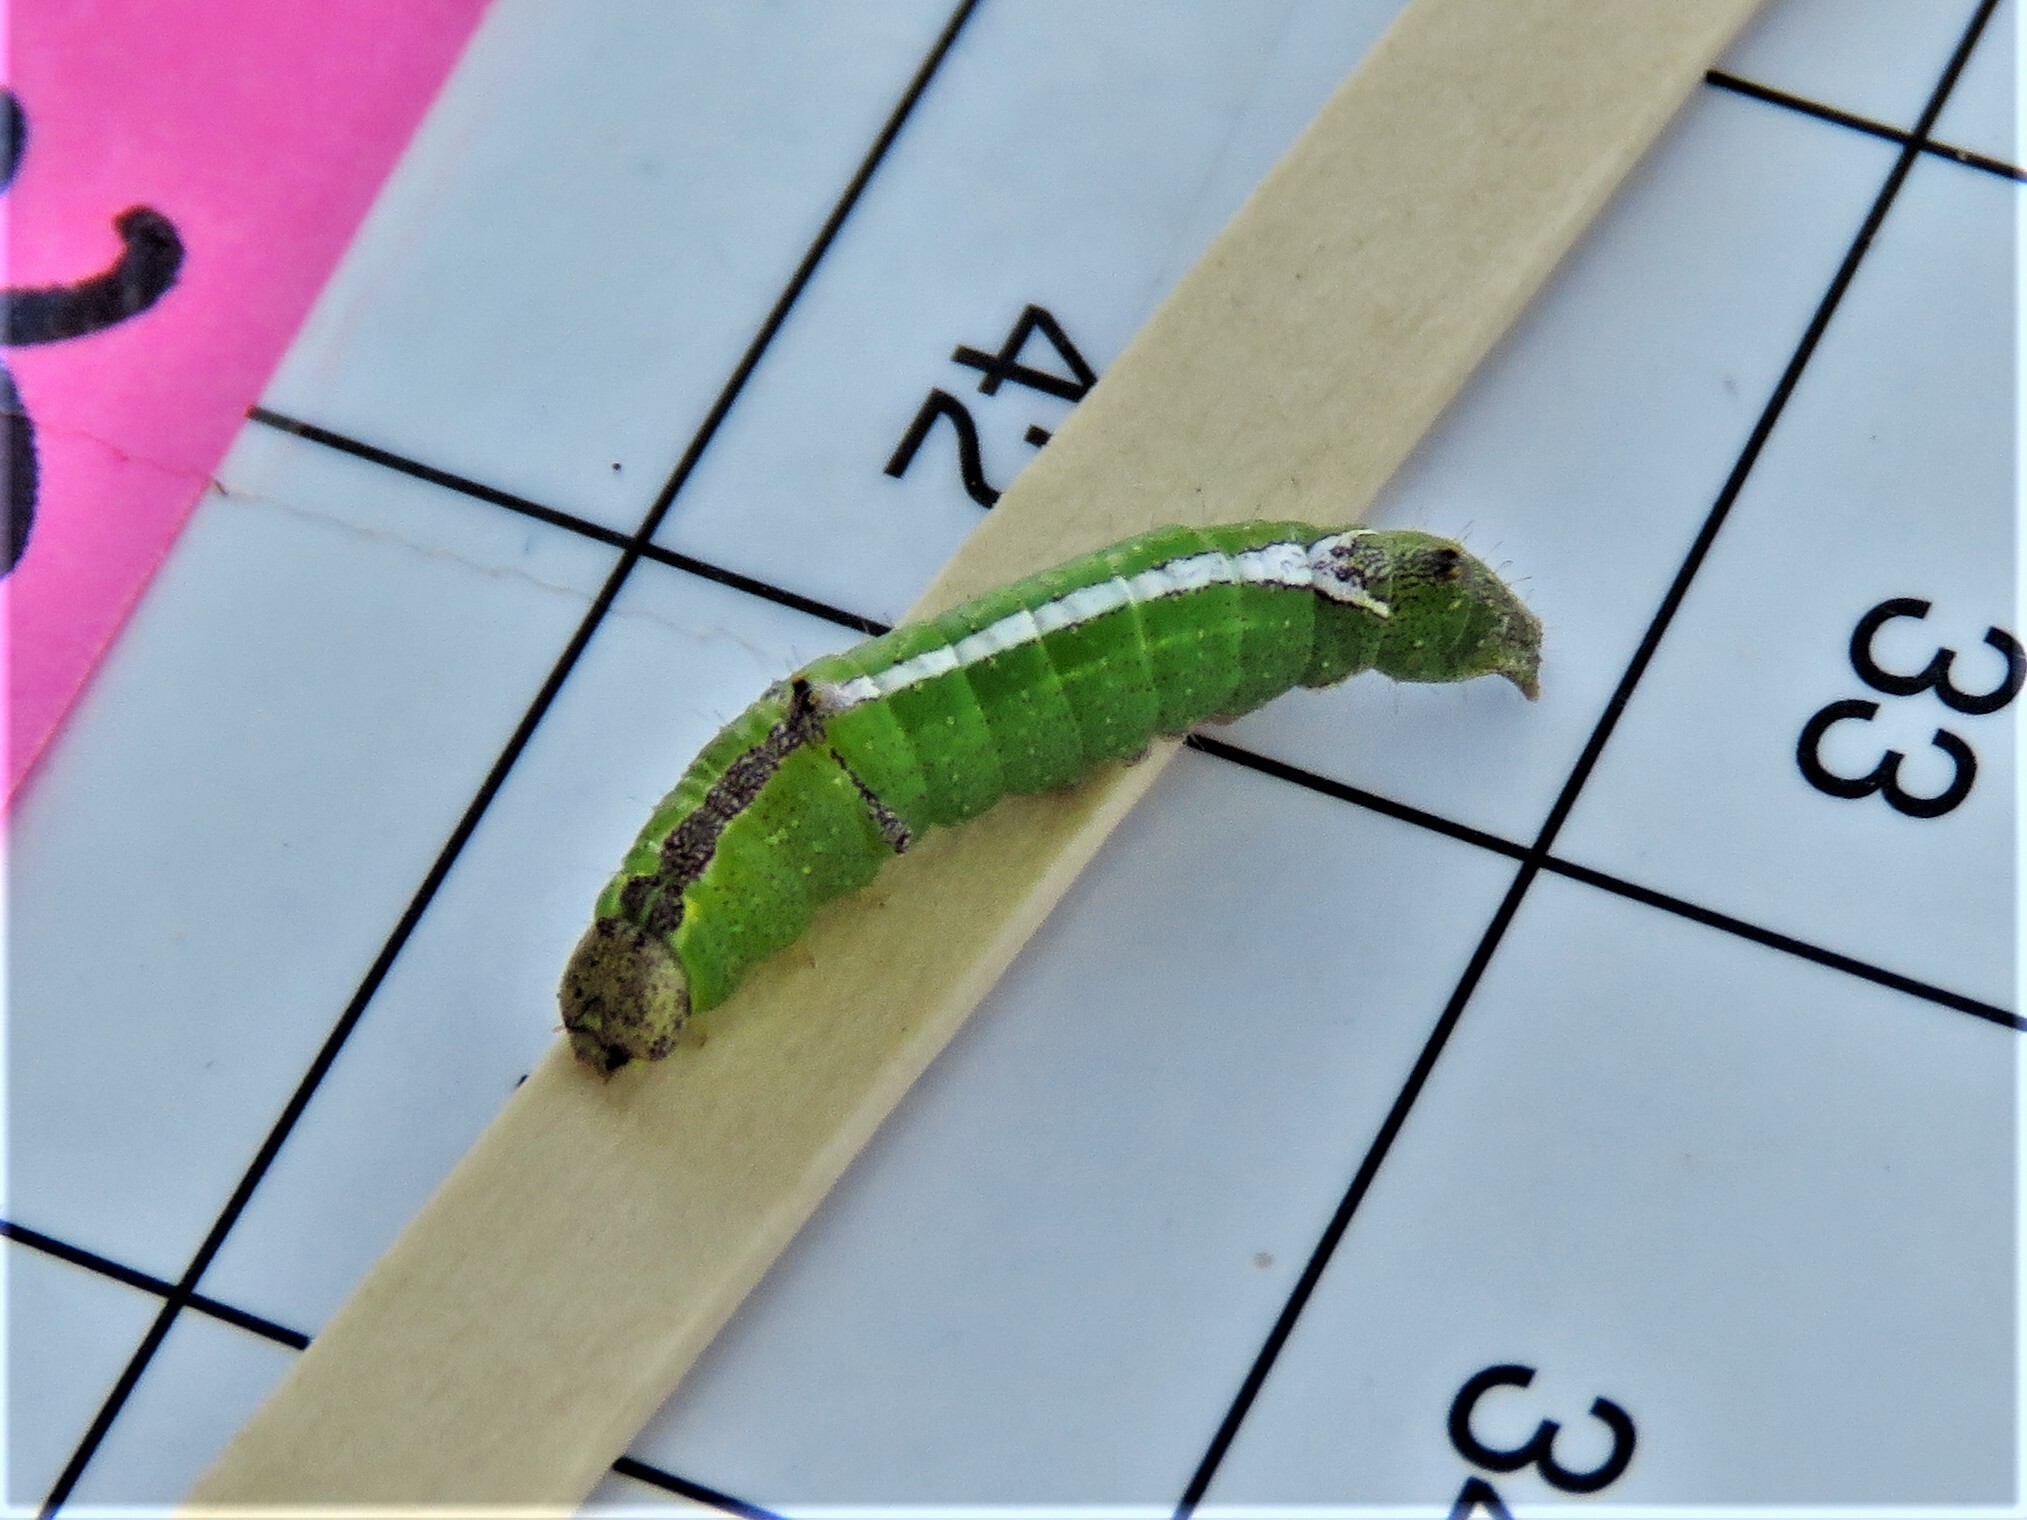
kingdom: Animalia
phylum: Arthropoda
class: Insecta
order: Lepidoptera
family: Notodontidae
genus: Schizura
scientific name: Schizura
